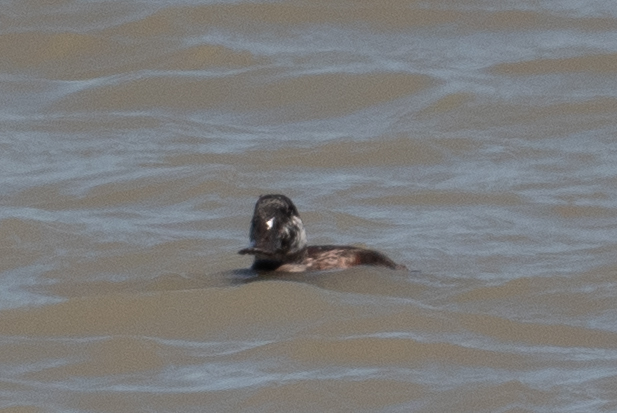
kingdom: Animalia
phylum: Chordata
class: Aves
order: Anseriformes
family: Anatidae
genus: Oxyura
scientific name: Oxyura jamaicensis
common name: Ruddy duck
